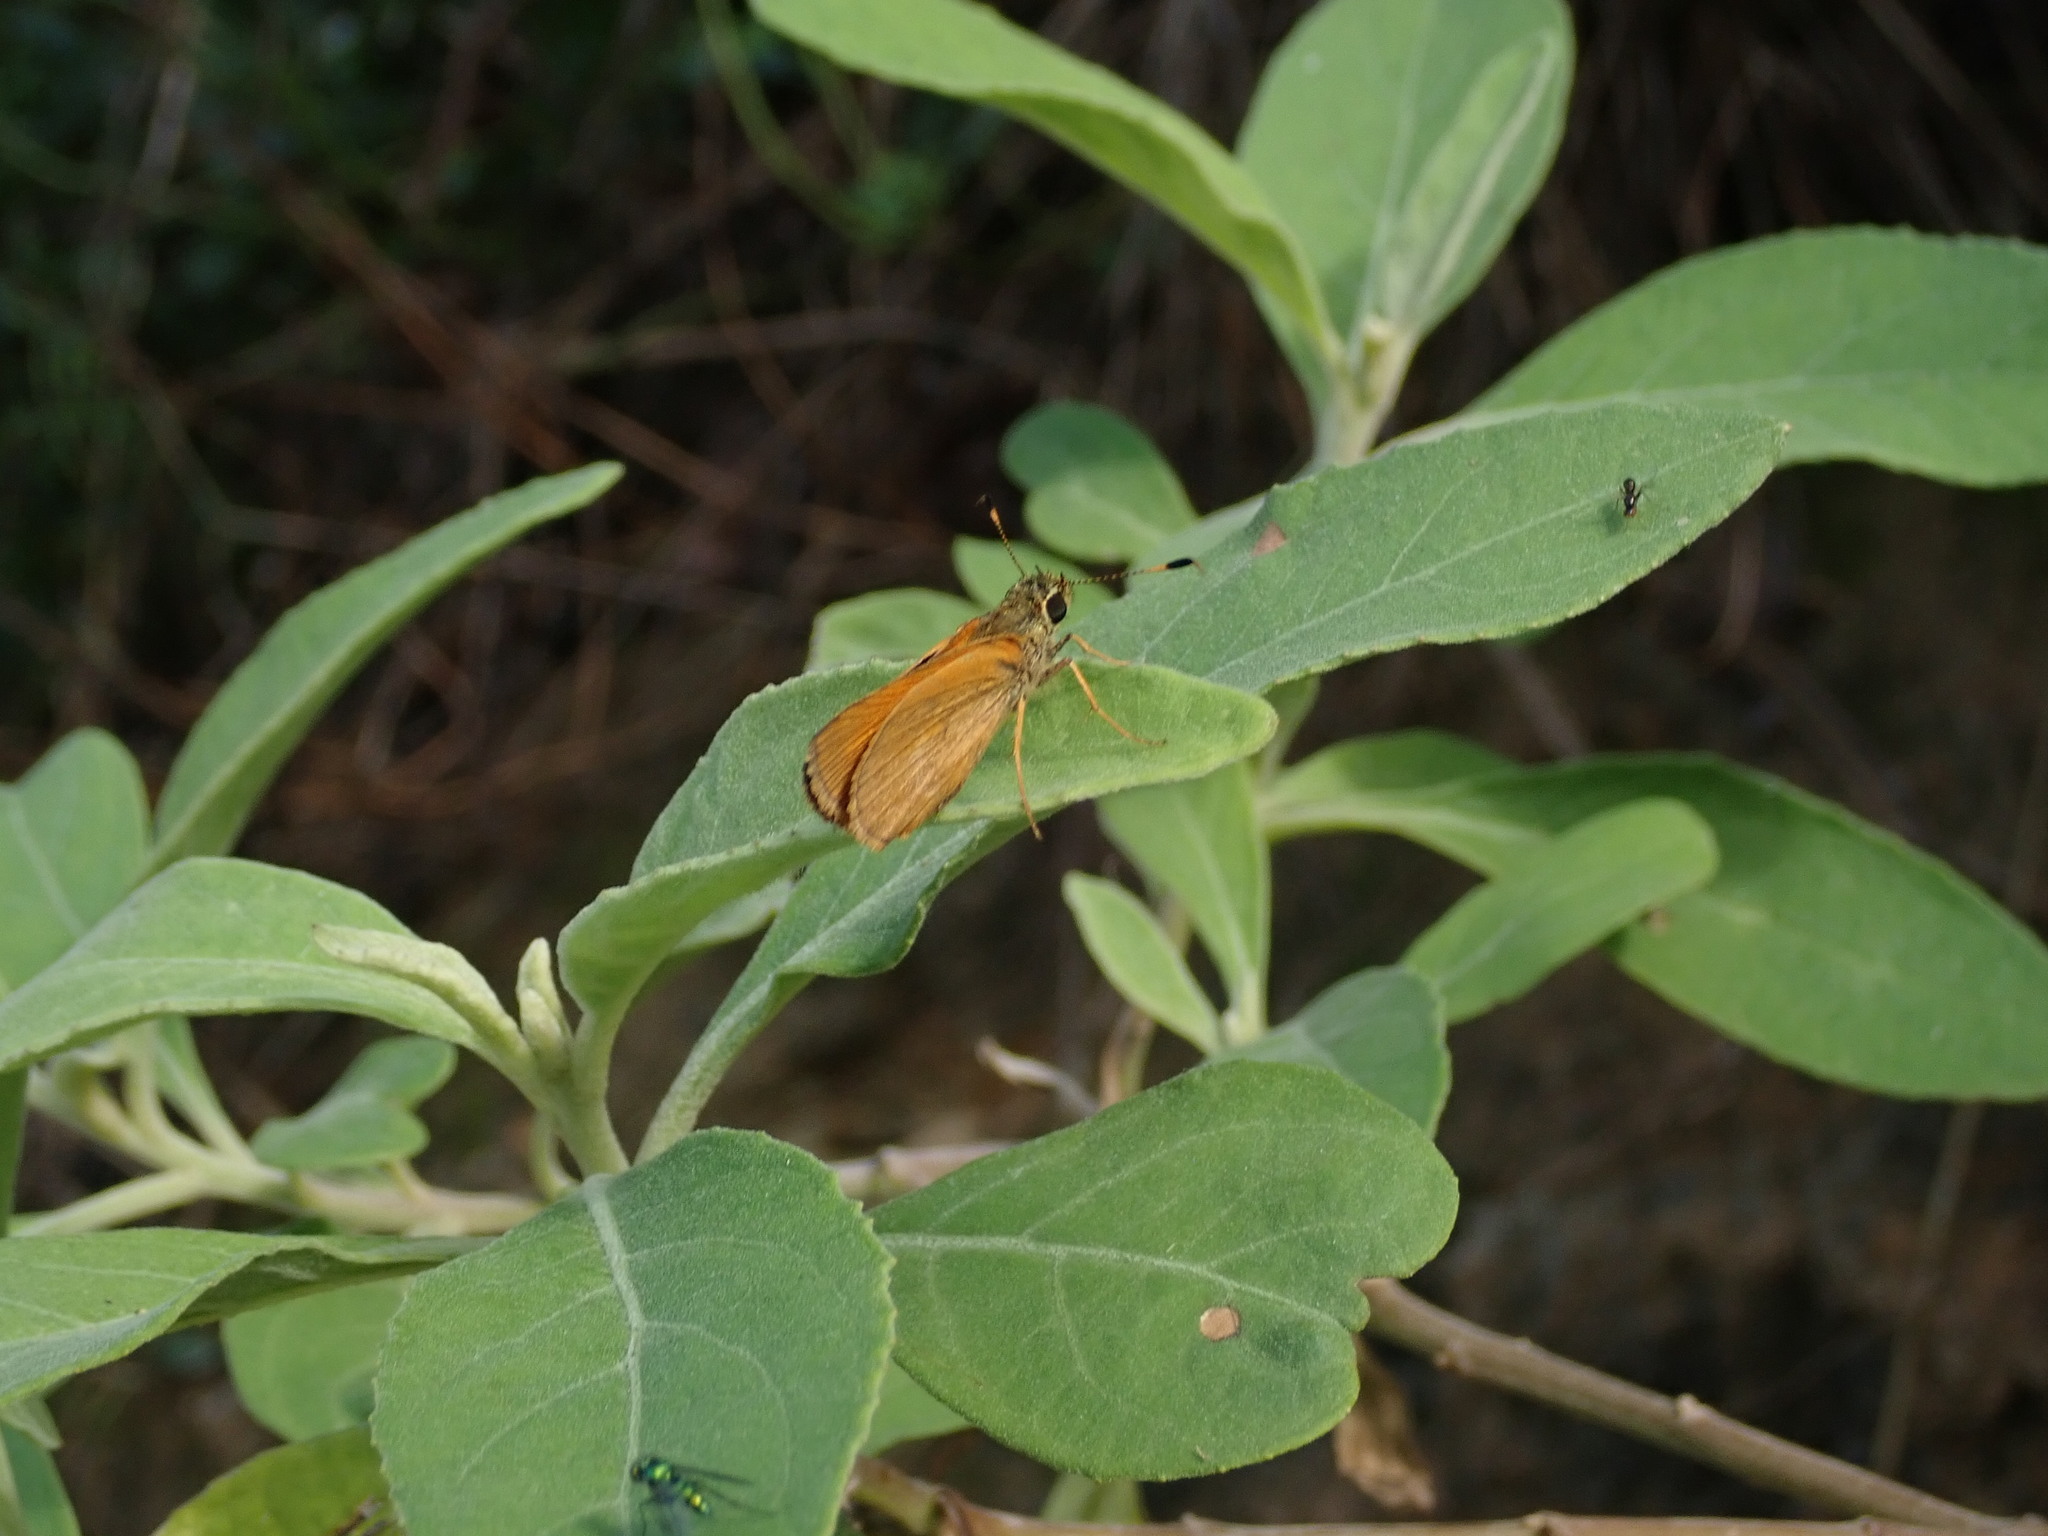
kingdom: Animalia
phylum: Arthropoda
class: Insecta
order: Lepidoptera
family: Hesperiidae
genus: Choranthus
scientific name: Choranthus vitellius
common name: Vitellius skipper
